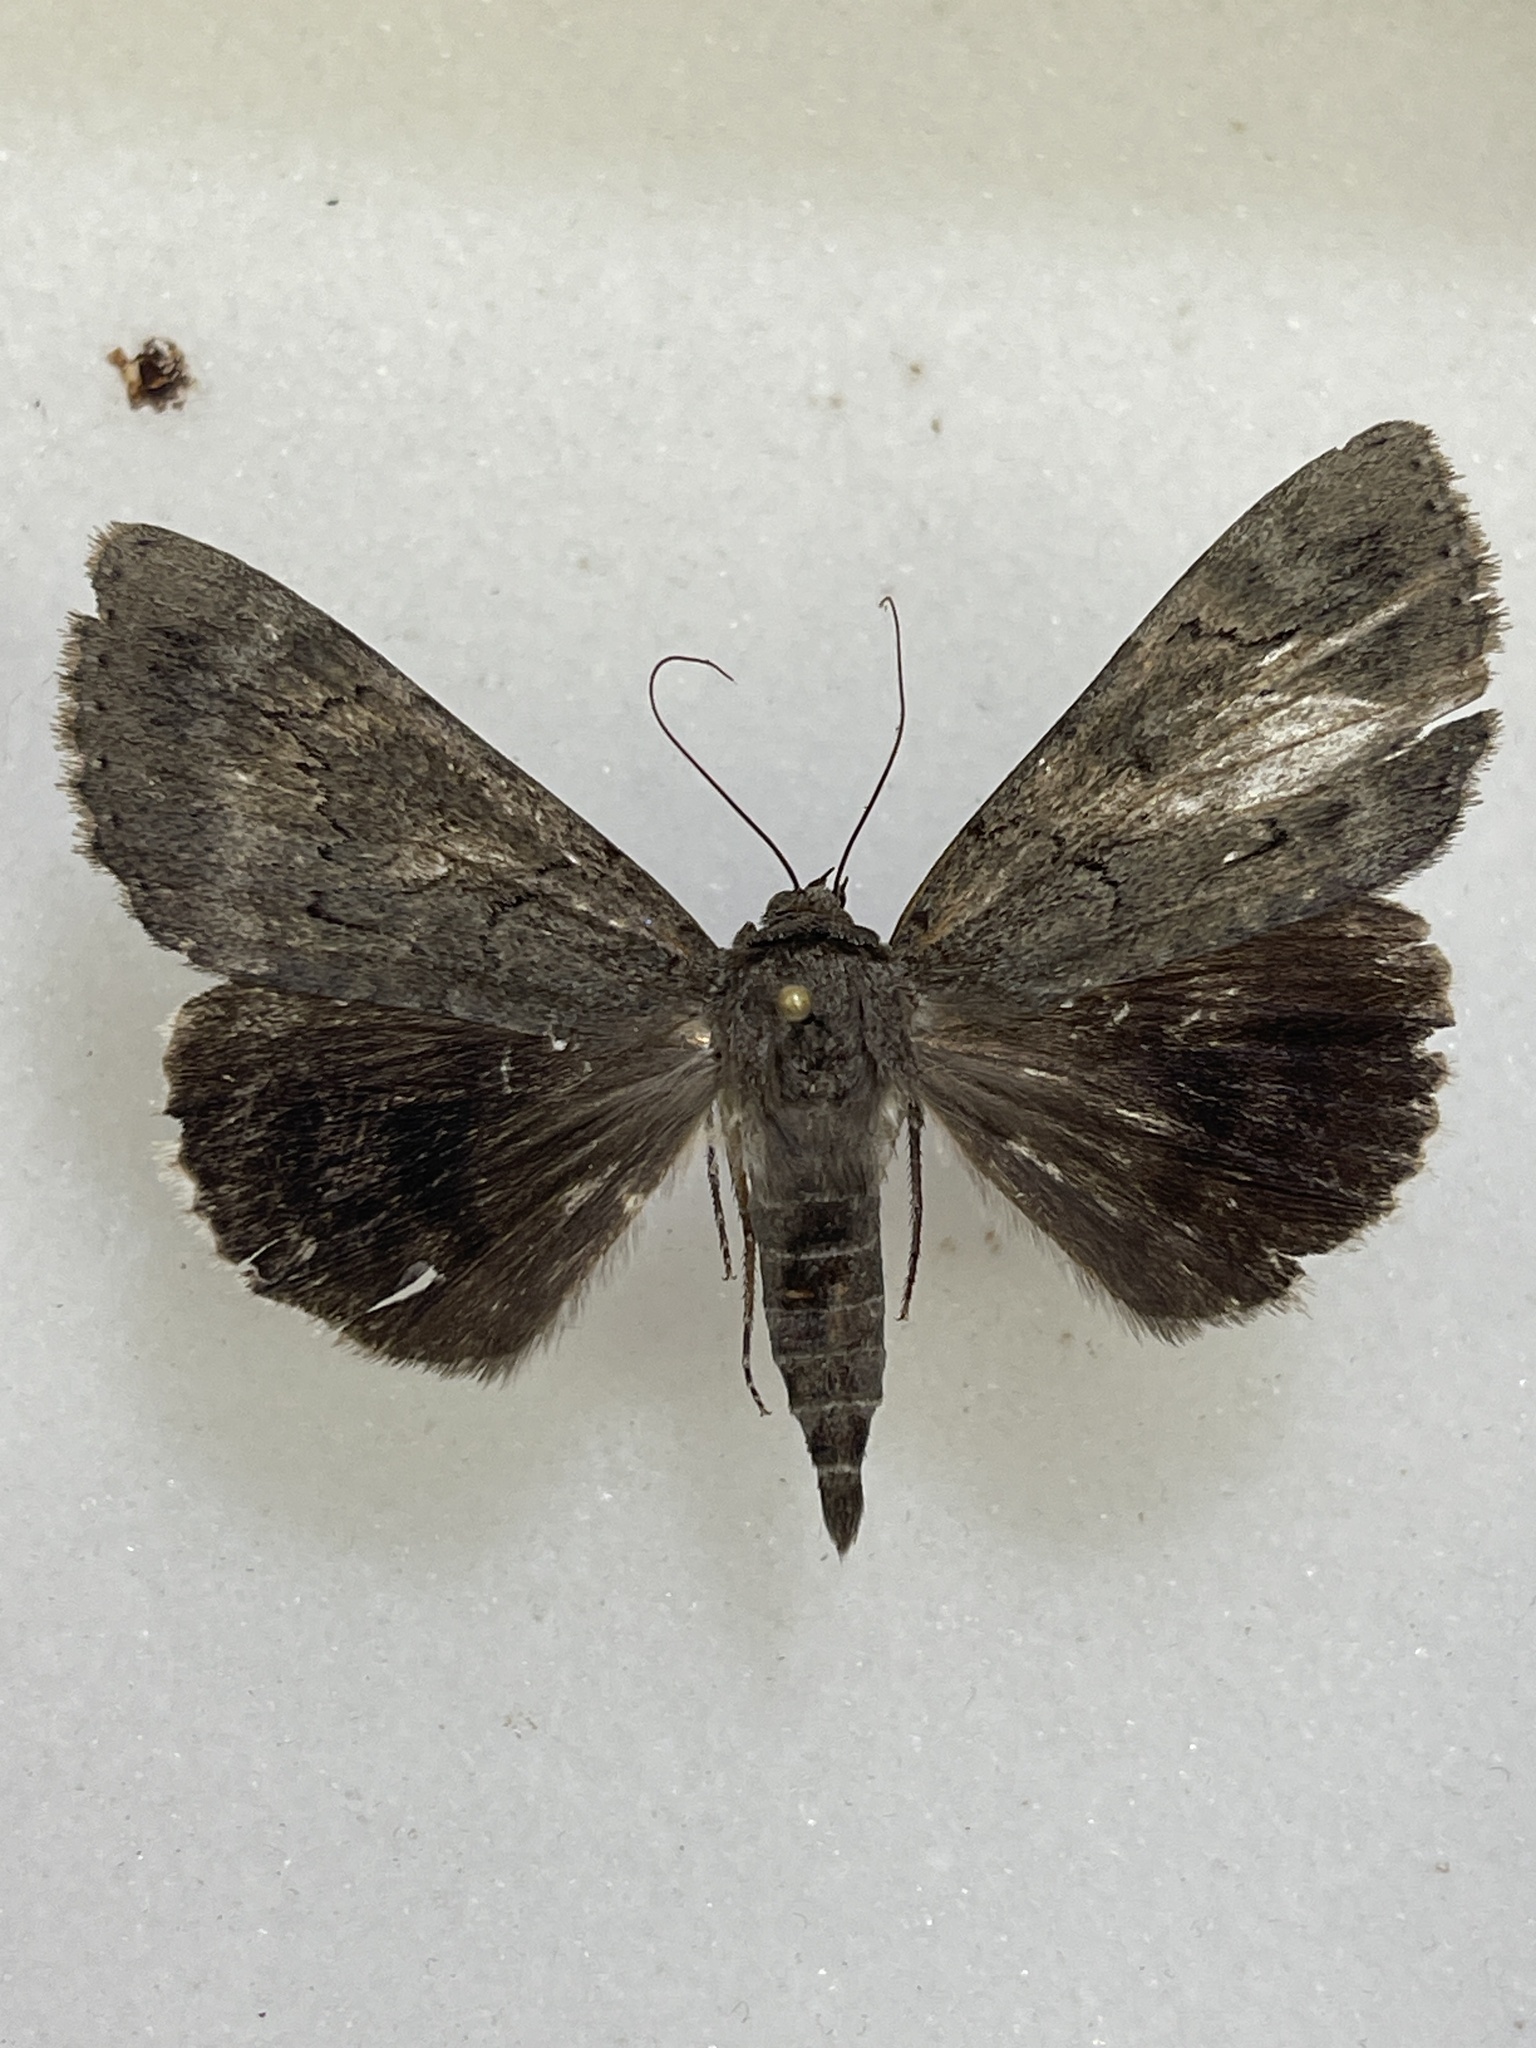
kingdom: Animalia
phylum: Arthropoda
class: Insecta
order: Lepidoptera
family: Erebidae
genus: Catocala
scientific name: Catocala obscura
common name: Obscure underwing moth
